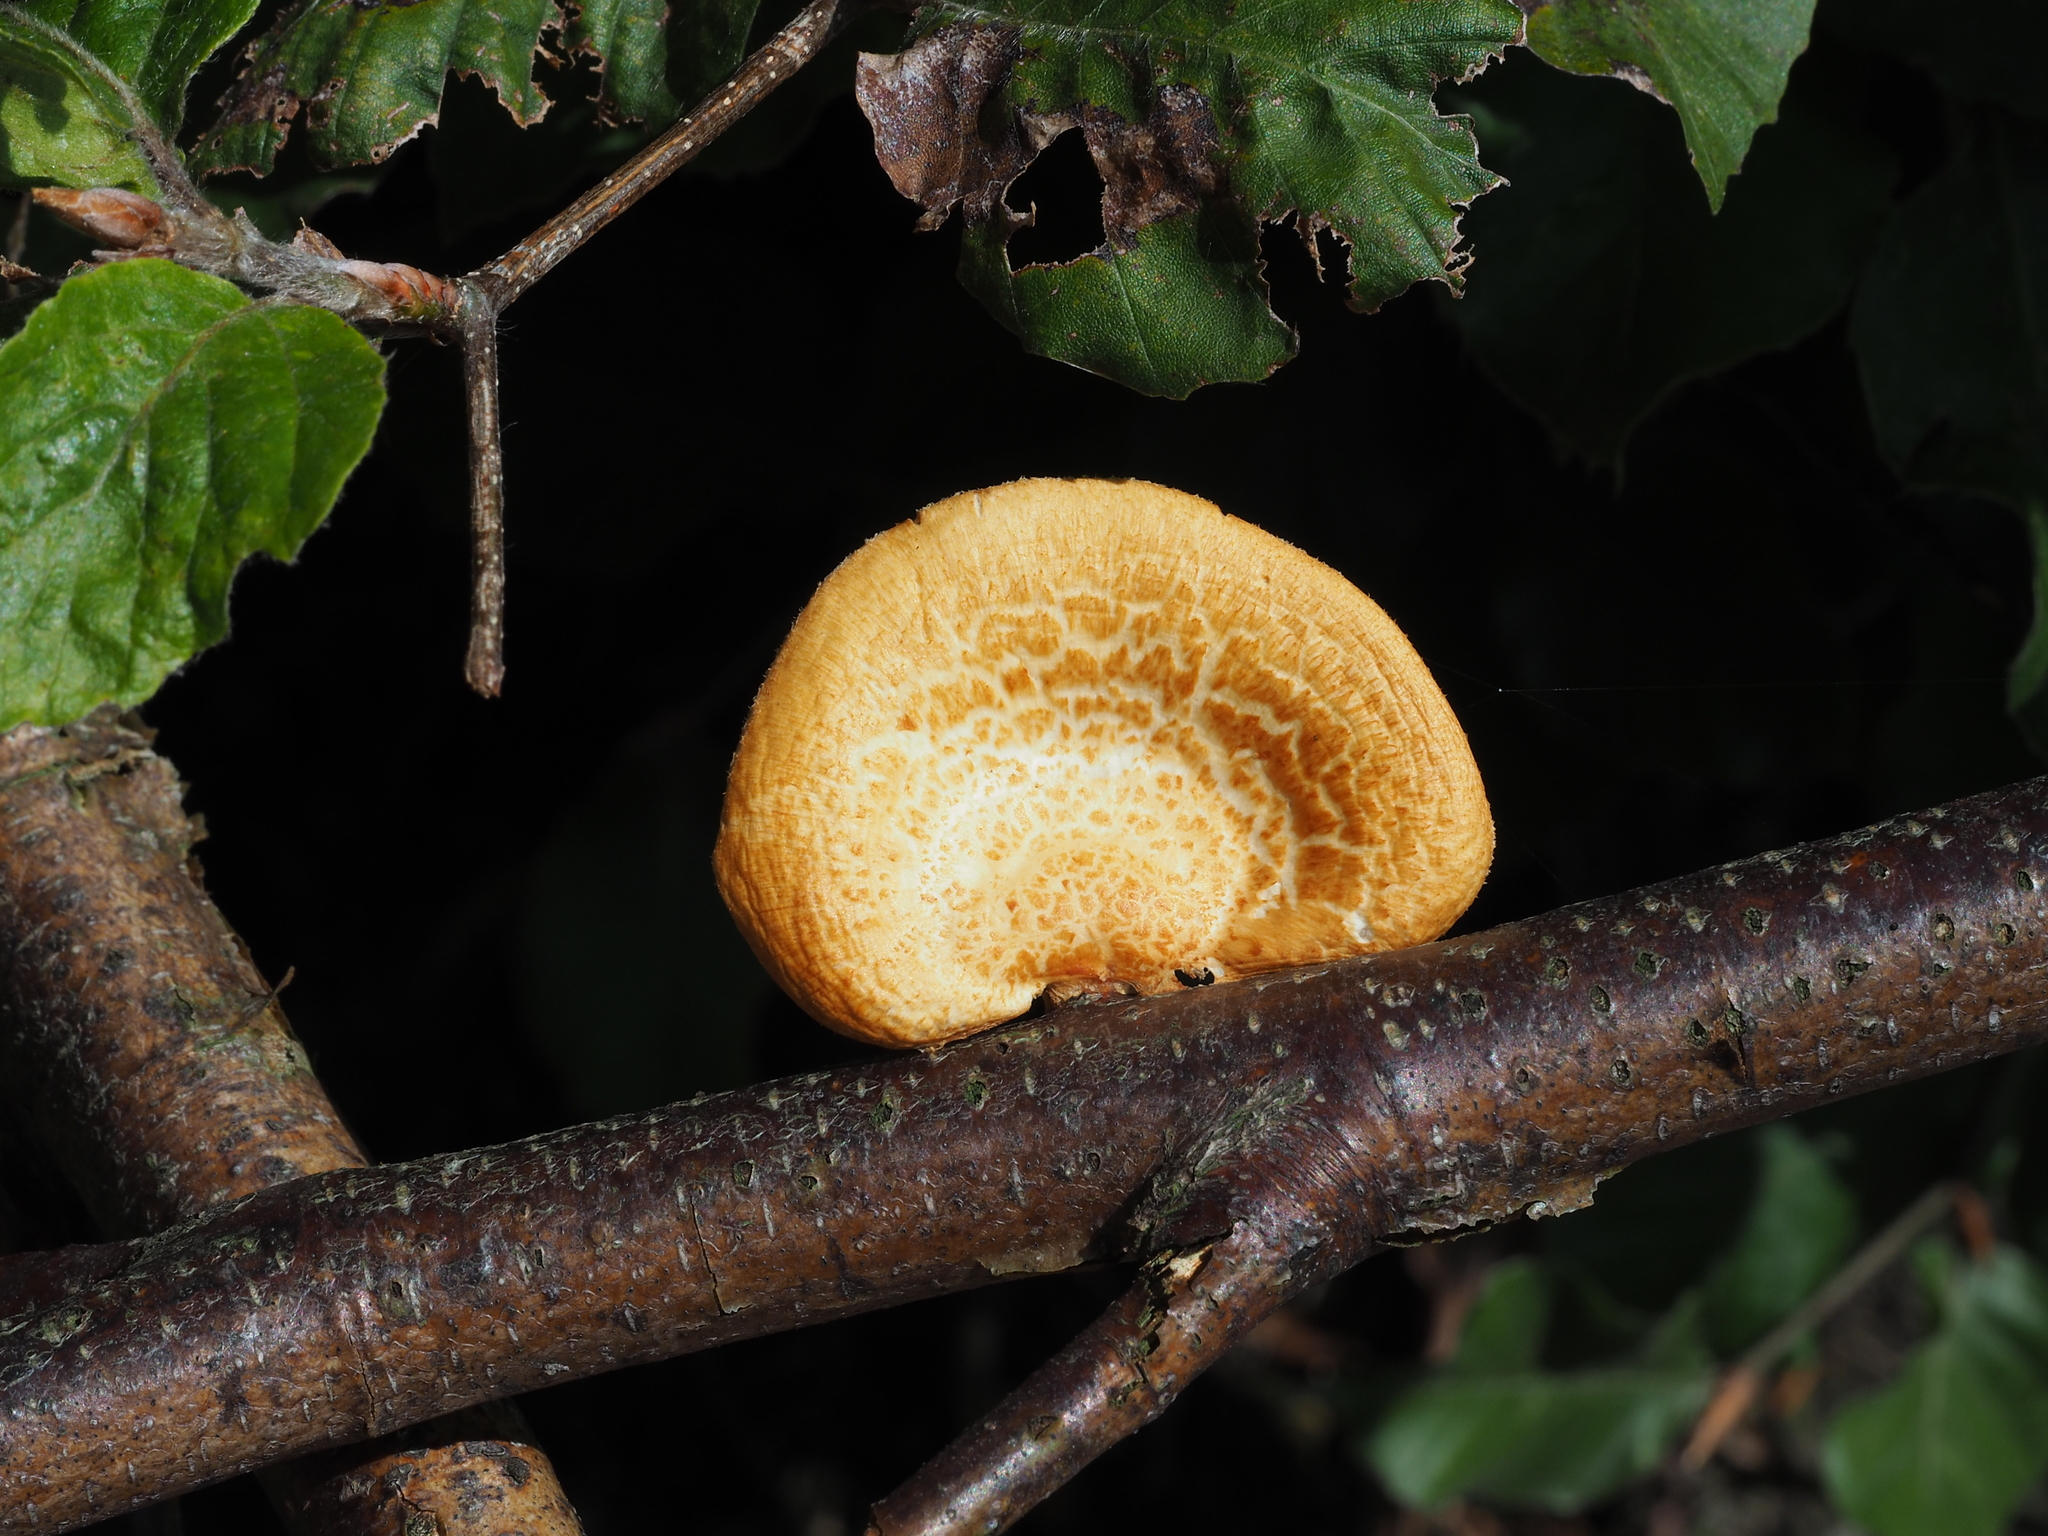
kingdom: Fungi
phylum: Basidiomycota
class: Agaricomycetes
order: Polyporales
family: Polyporaceae
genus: Neofavolus
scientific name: Neofavolus alveolaris
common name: Hexagonal-pored polypore
